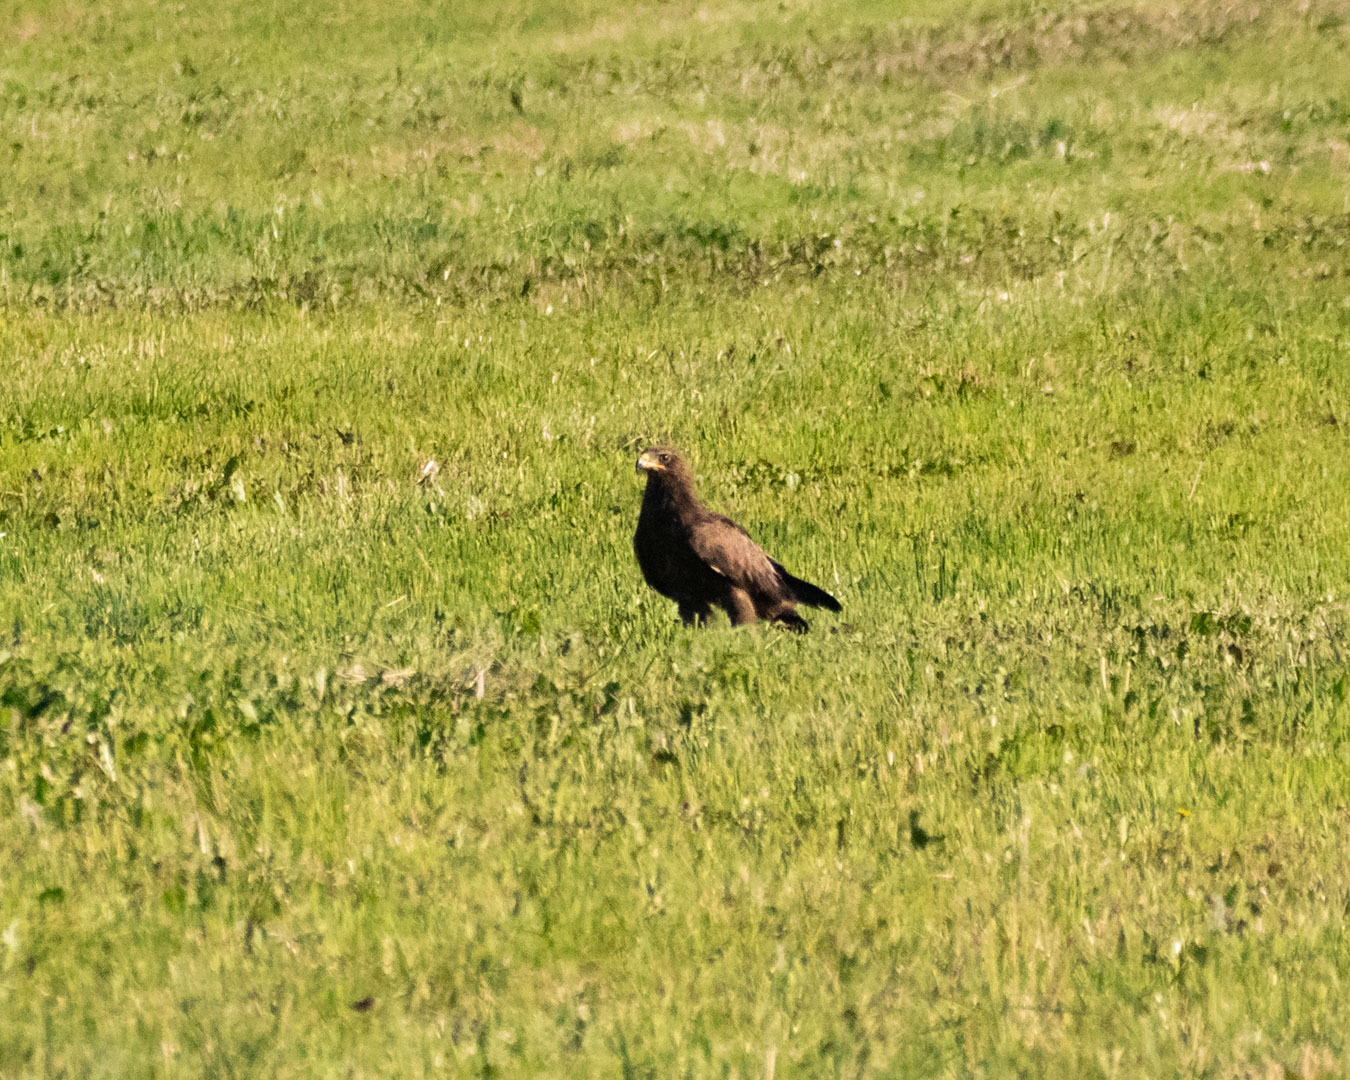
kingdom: Animalia
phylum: Chordata
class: Aves
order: Accipitriformes
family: Accipitridae
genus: Aquila
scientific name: Aquila pomarina
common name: Lesser spotted eagle
